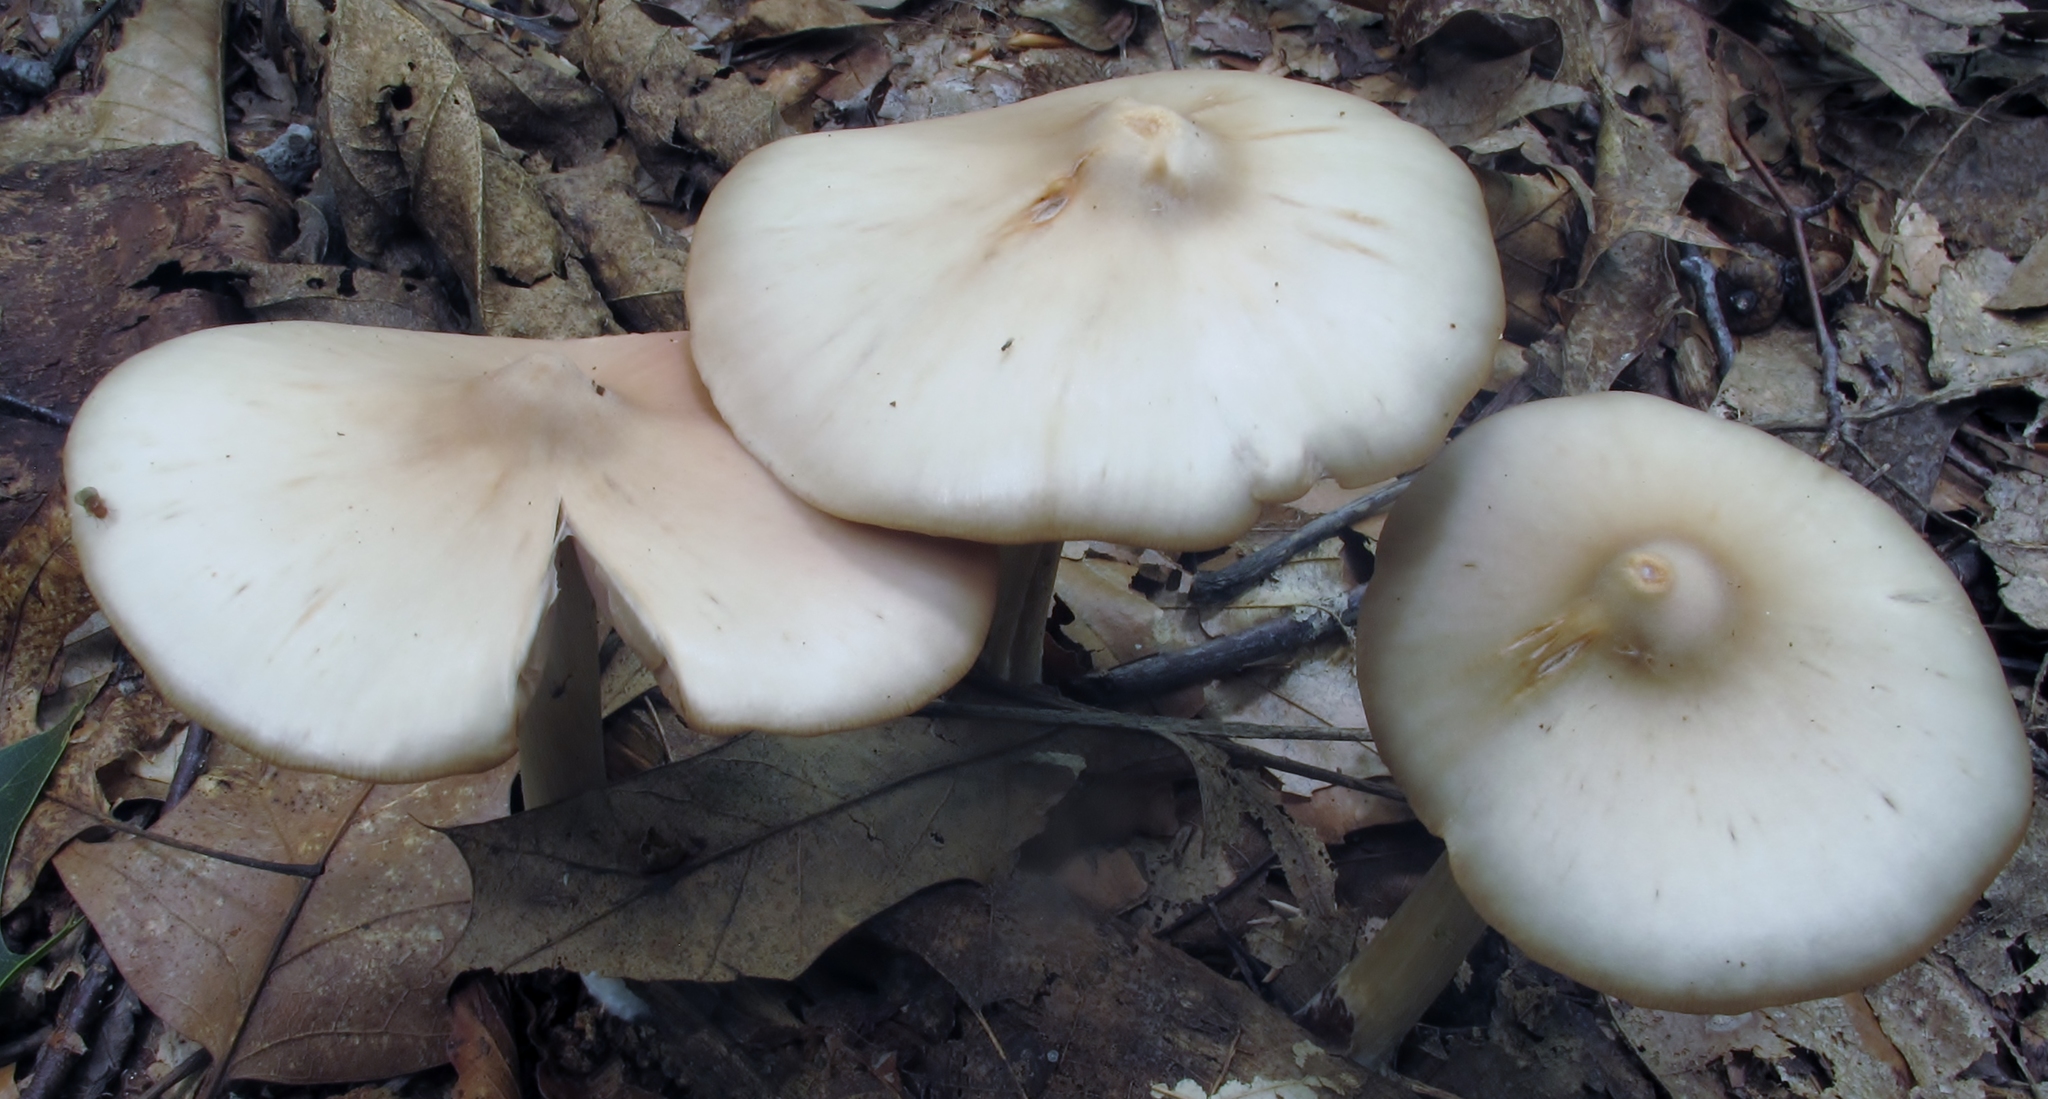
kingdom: Fungi
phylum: Basidiomycota
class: Agaricomycetes
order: Agaricales
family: Entolomataceae
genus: Entoloma
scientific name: Entoloma strictius
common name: Straight-stalked entoloma
